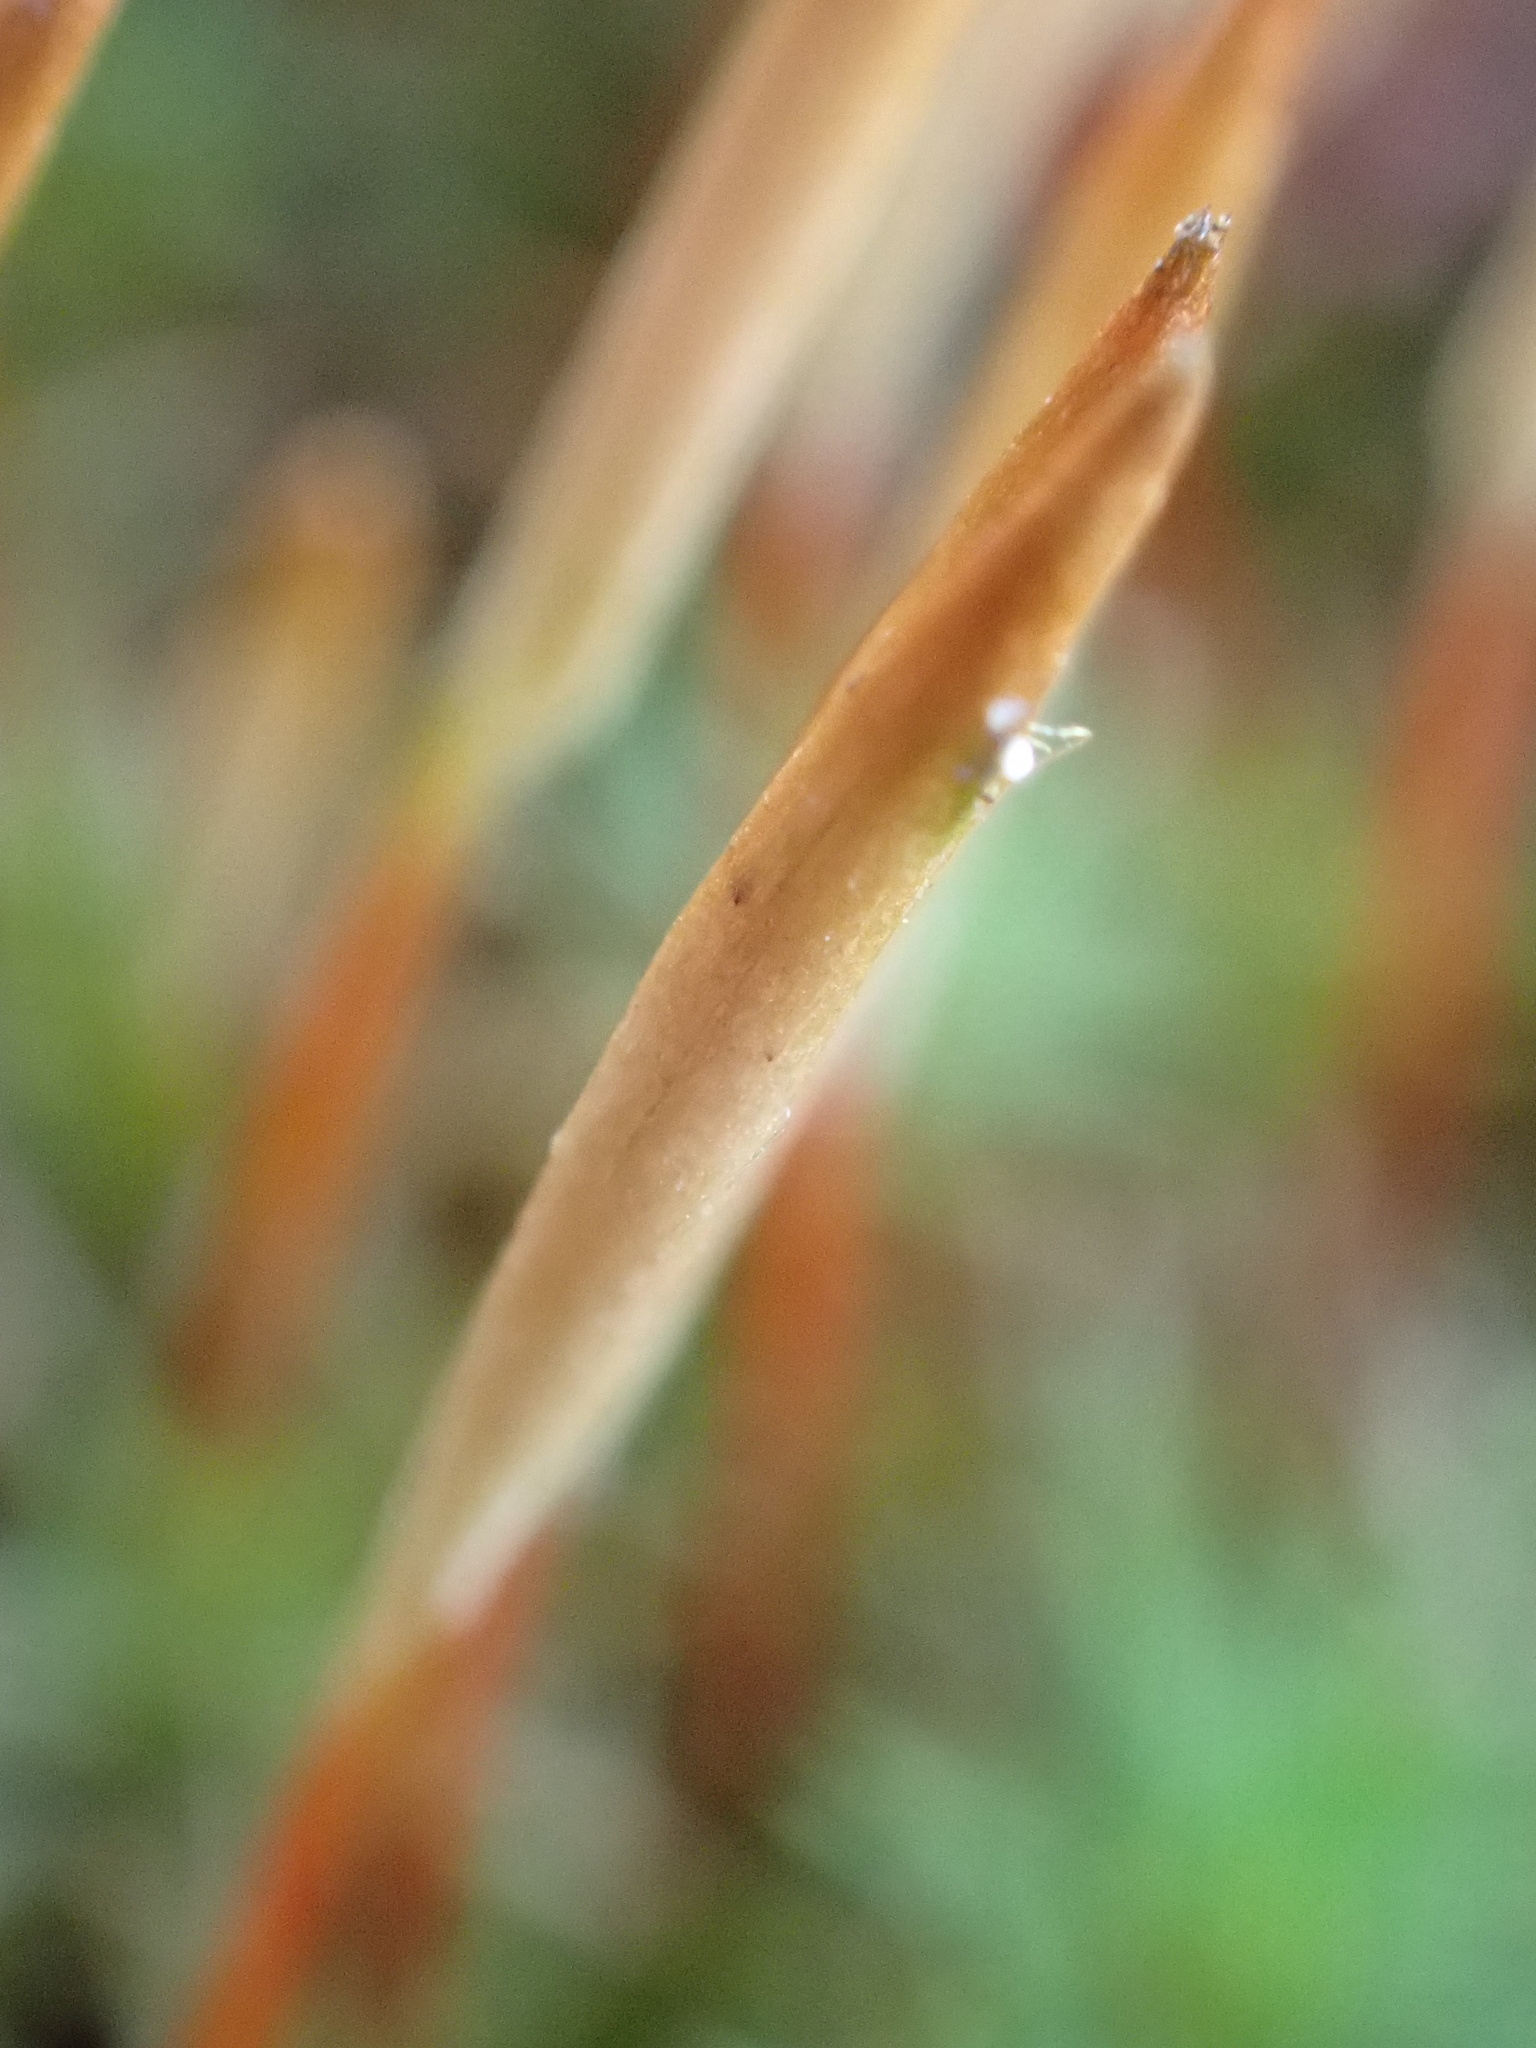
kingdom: Plantae
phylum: Bryophyta
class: Polytrichopsida
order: Polytrichales
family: Polytrichaceae
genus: Polytrichum
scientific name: Polytrichum juniperinum
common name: Juniper haircap moss
